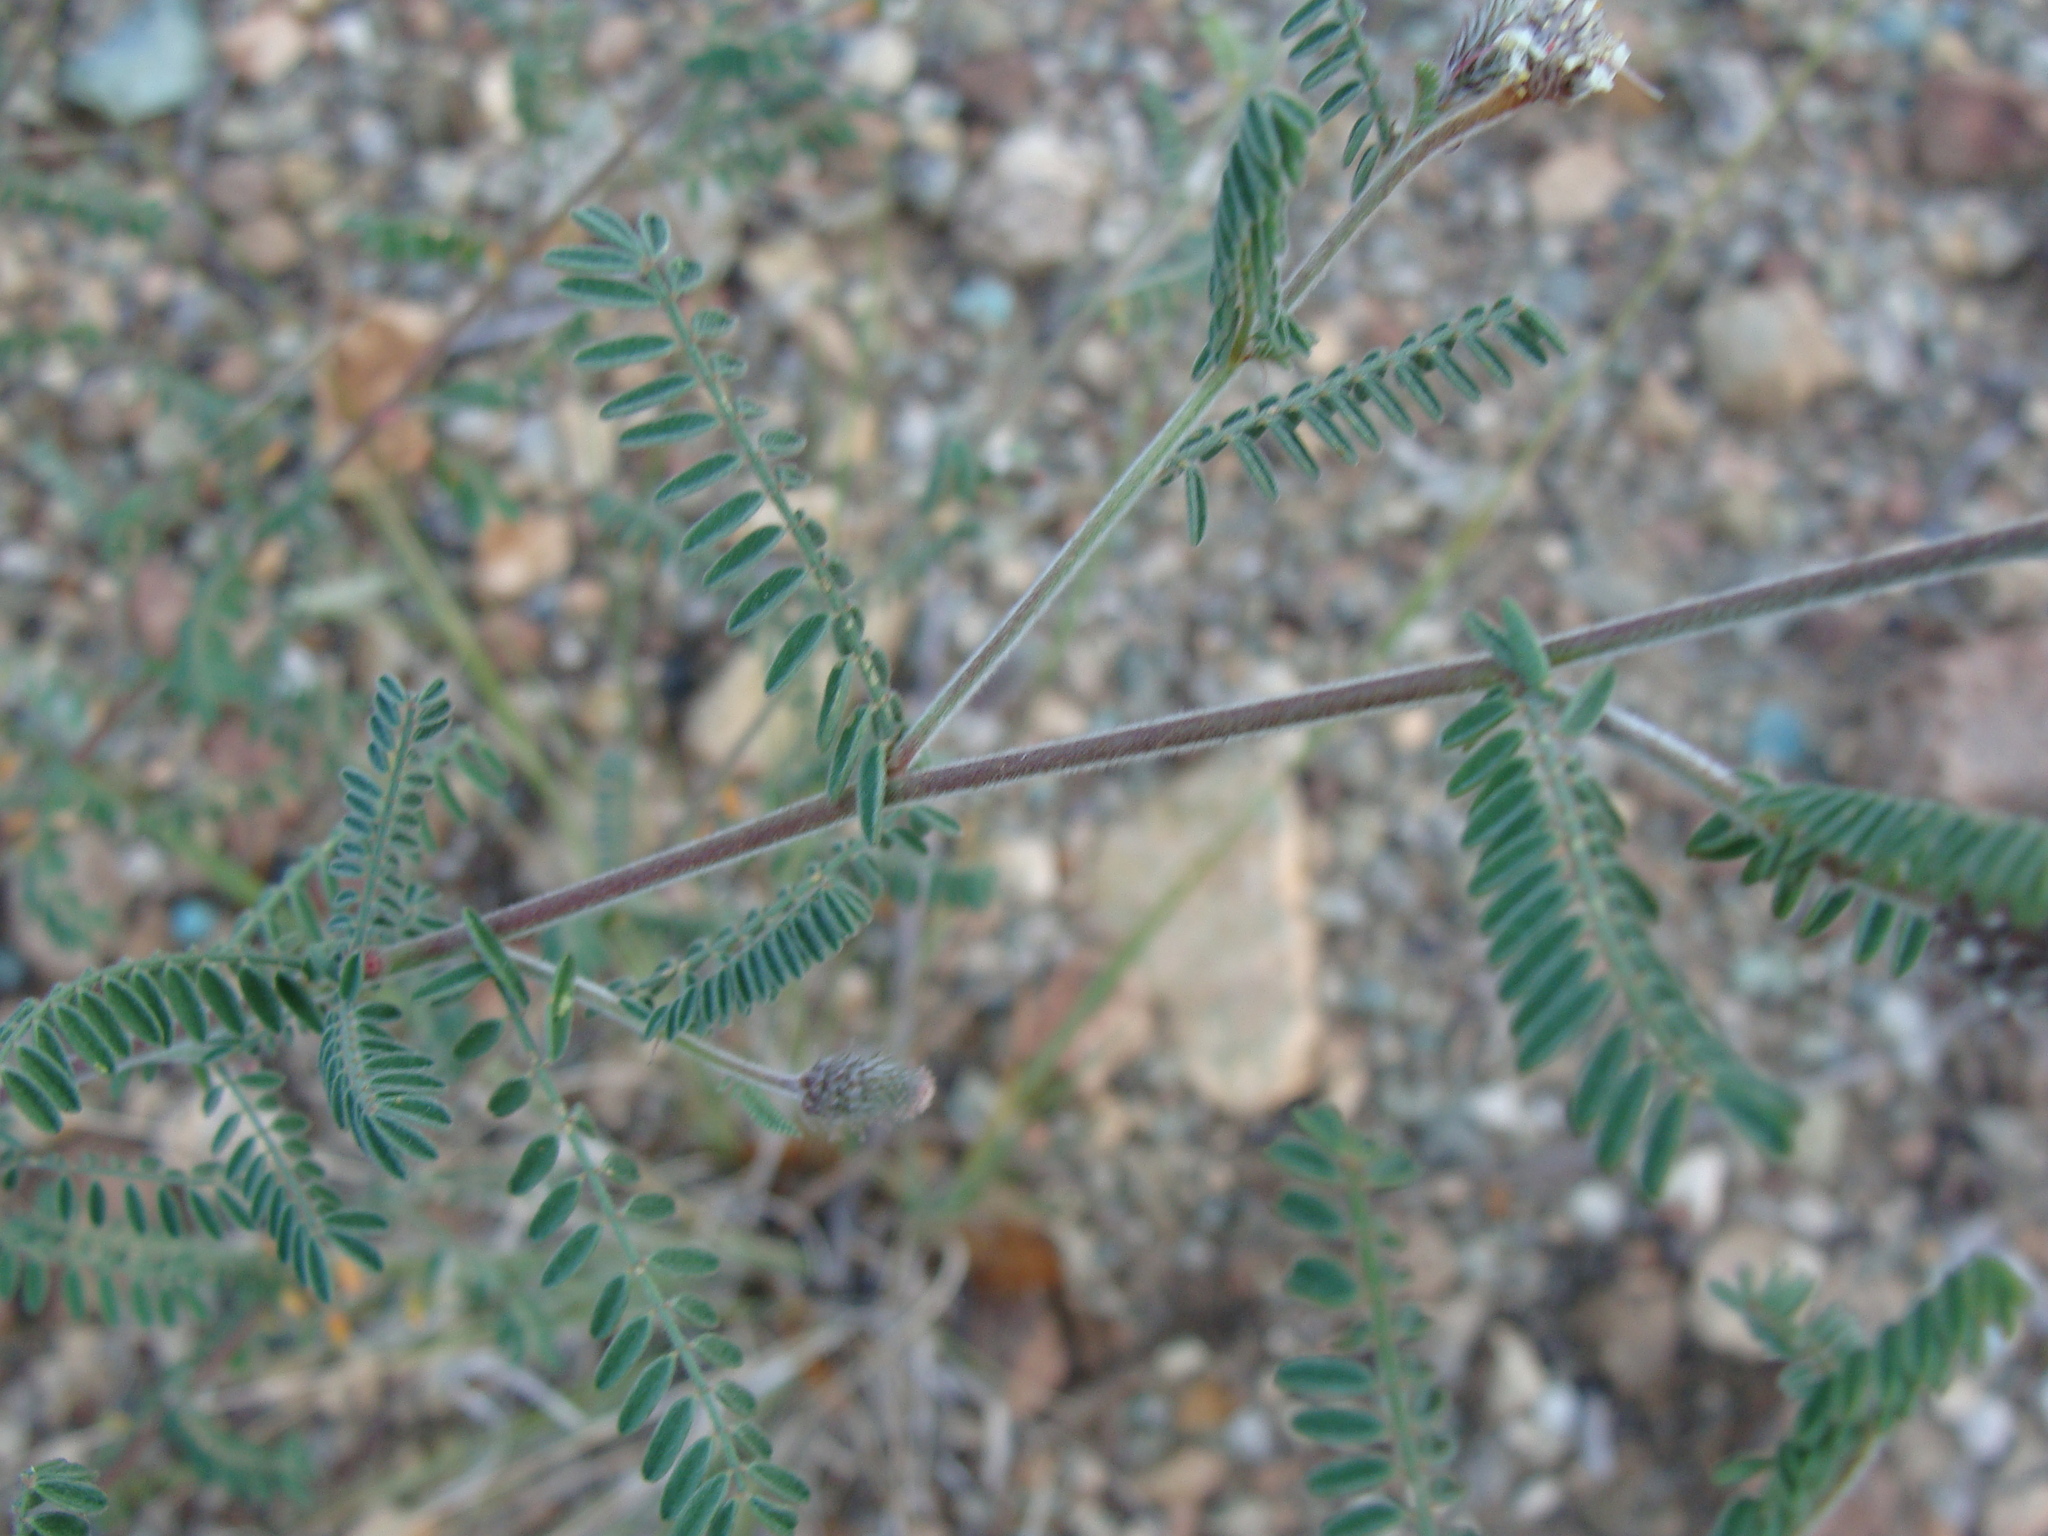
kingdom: Plantae
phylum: Tracheophyta
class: Magnoliopsida
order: Fabales
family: Fabaceae
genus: Dalea
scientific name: Dalea albiflora
